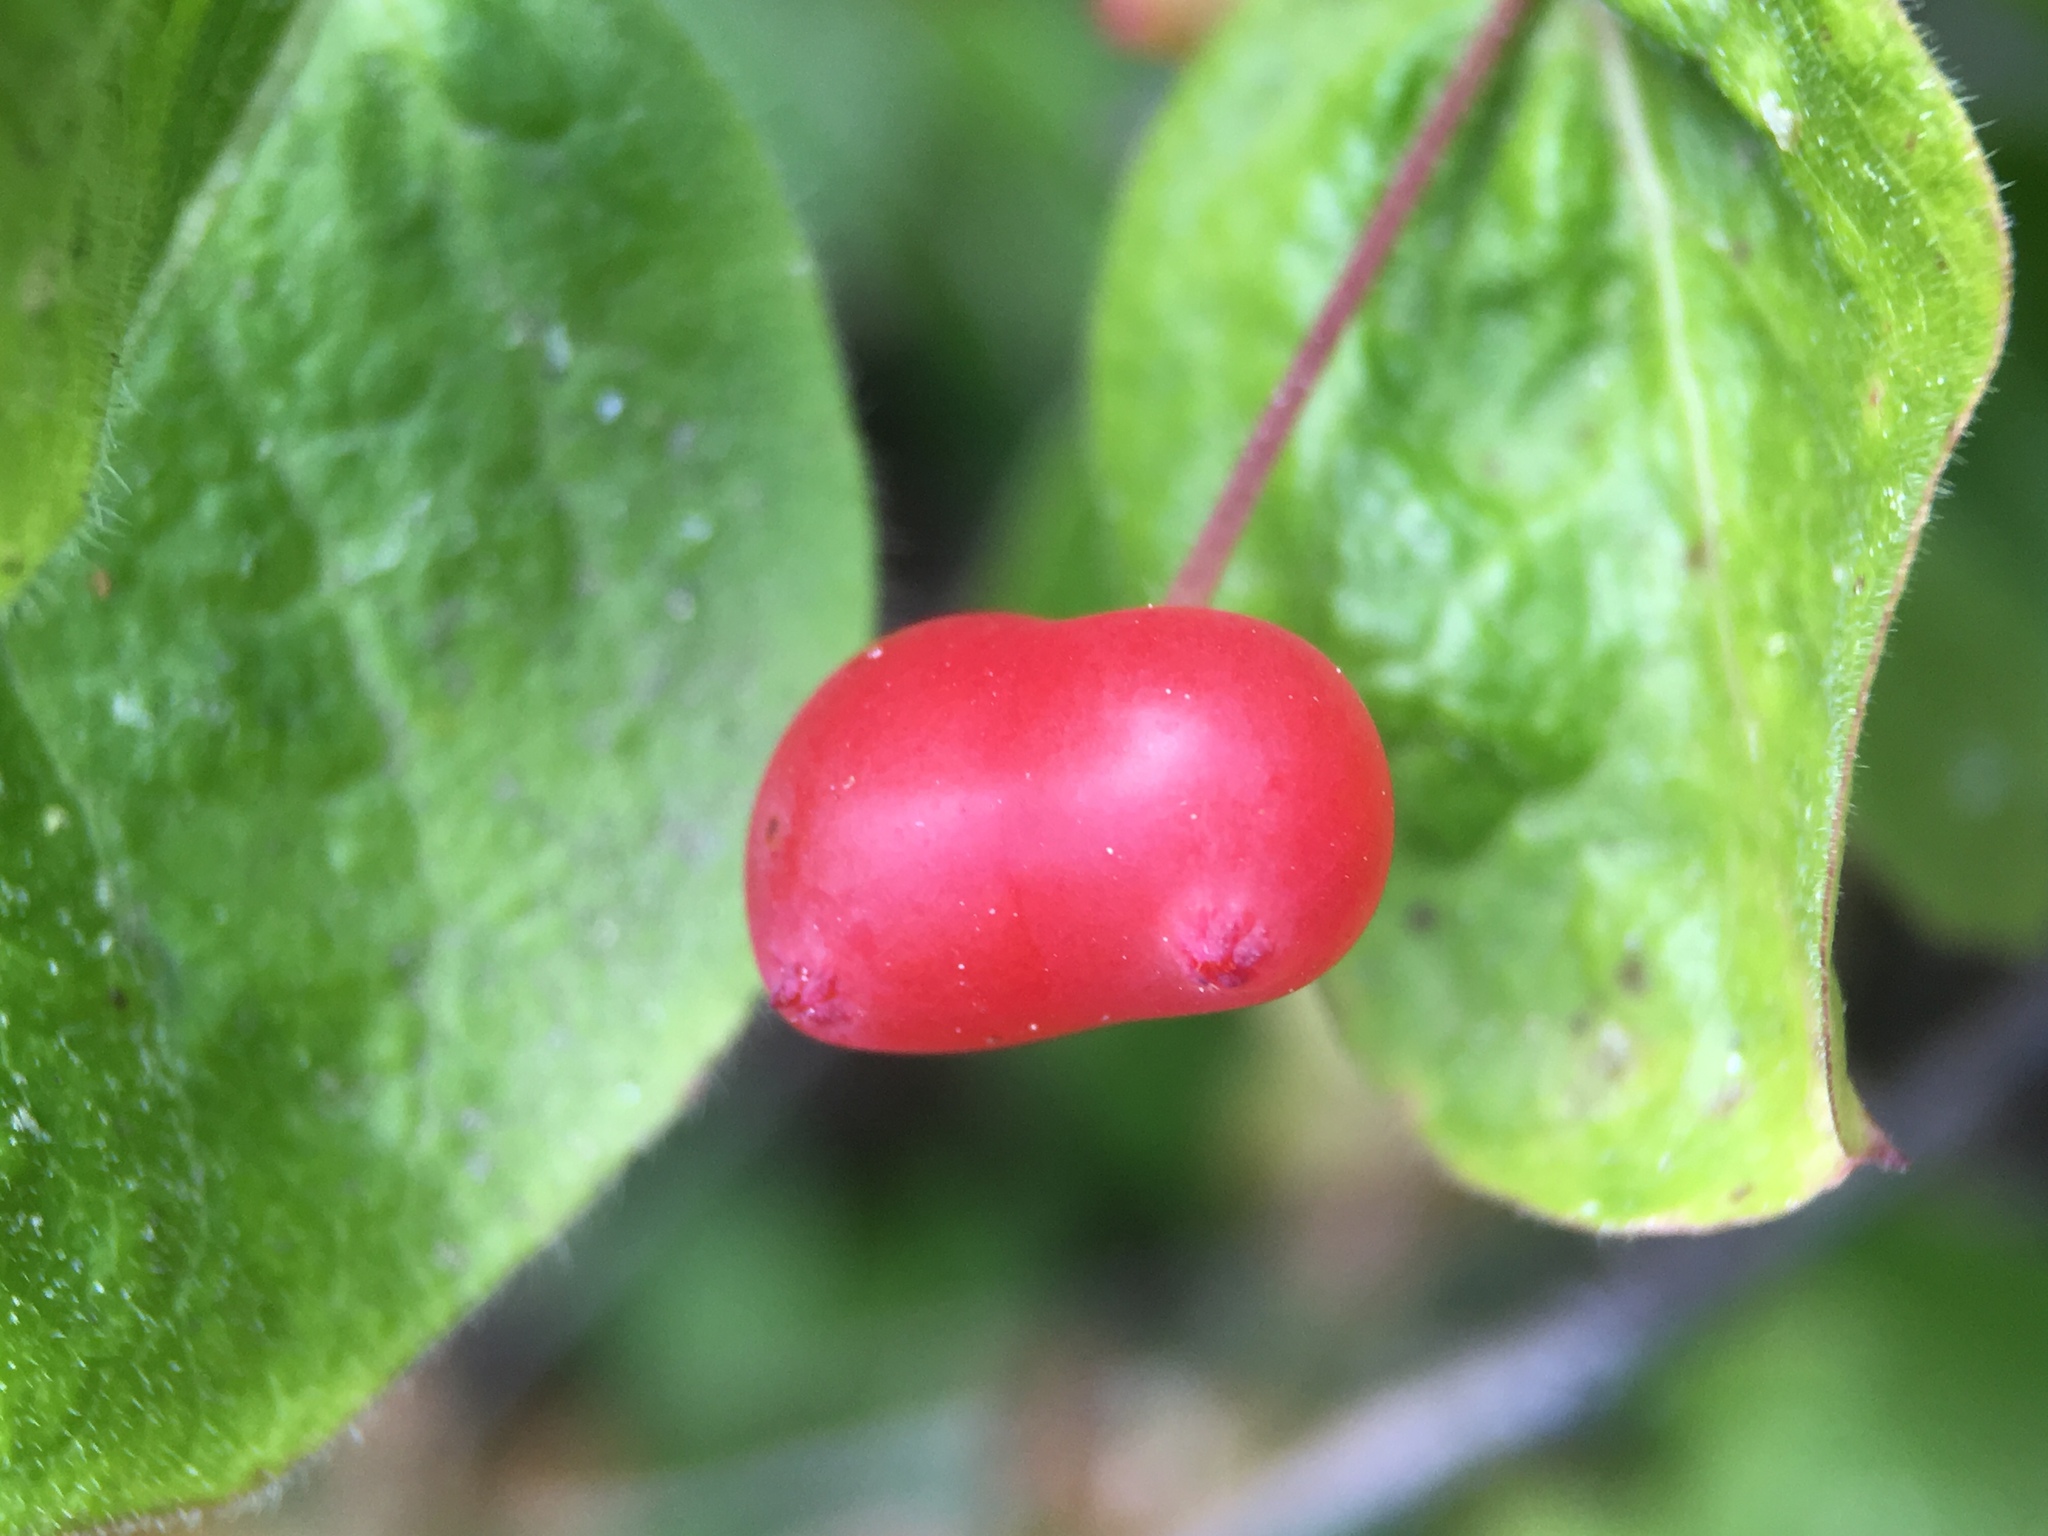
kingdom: Plantae
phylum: Tracheophyta
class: Magnoliopsida
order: Dipsacales
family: Caprifoliaceae
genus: Lonicera
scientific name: Lonicera conjugialis
